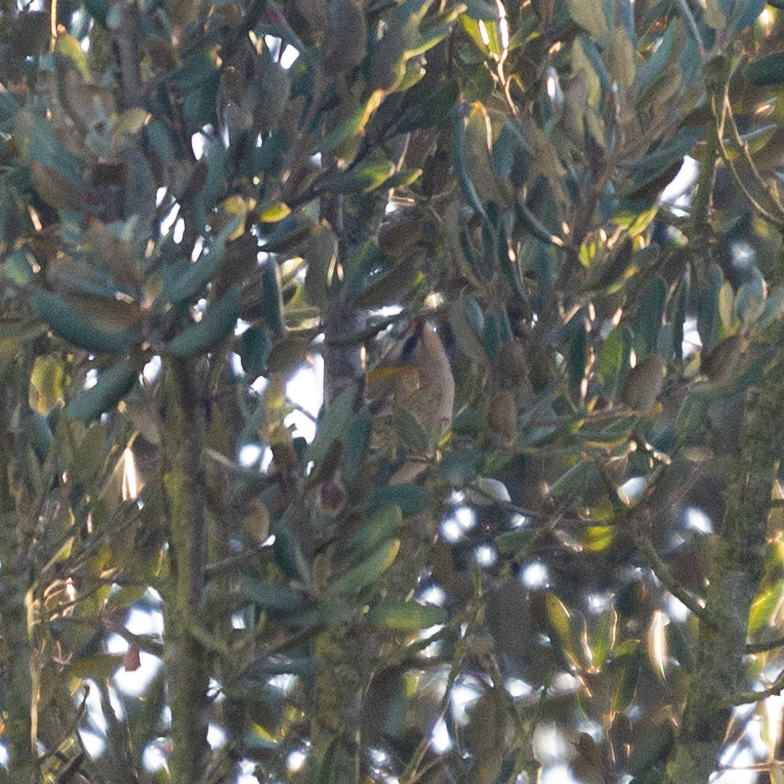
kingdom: Animalia
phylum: Chordata
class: Aves
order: Passeriformes
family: Regulidae
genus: Regulus
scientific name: Regulus ignicapilla
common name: Firecrest
